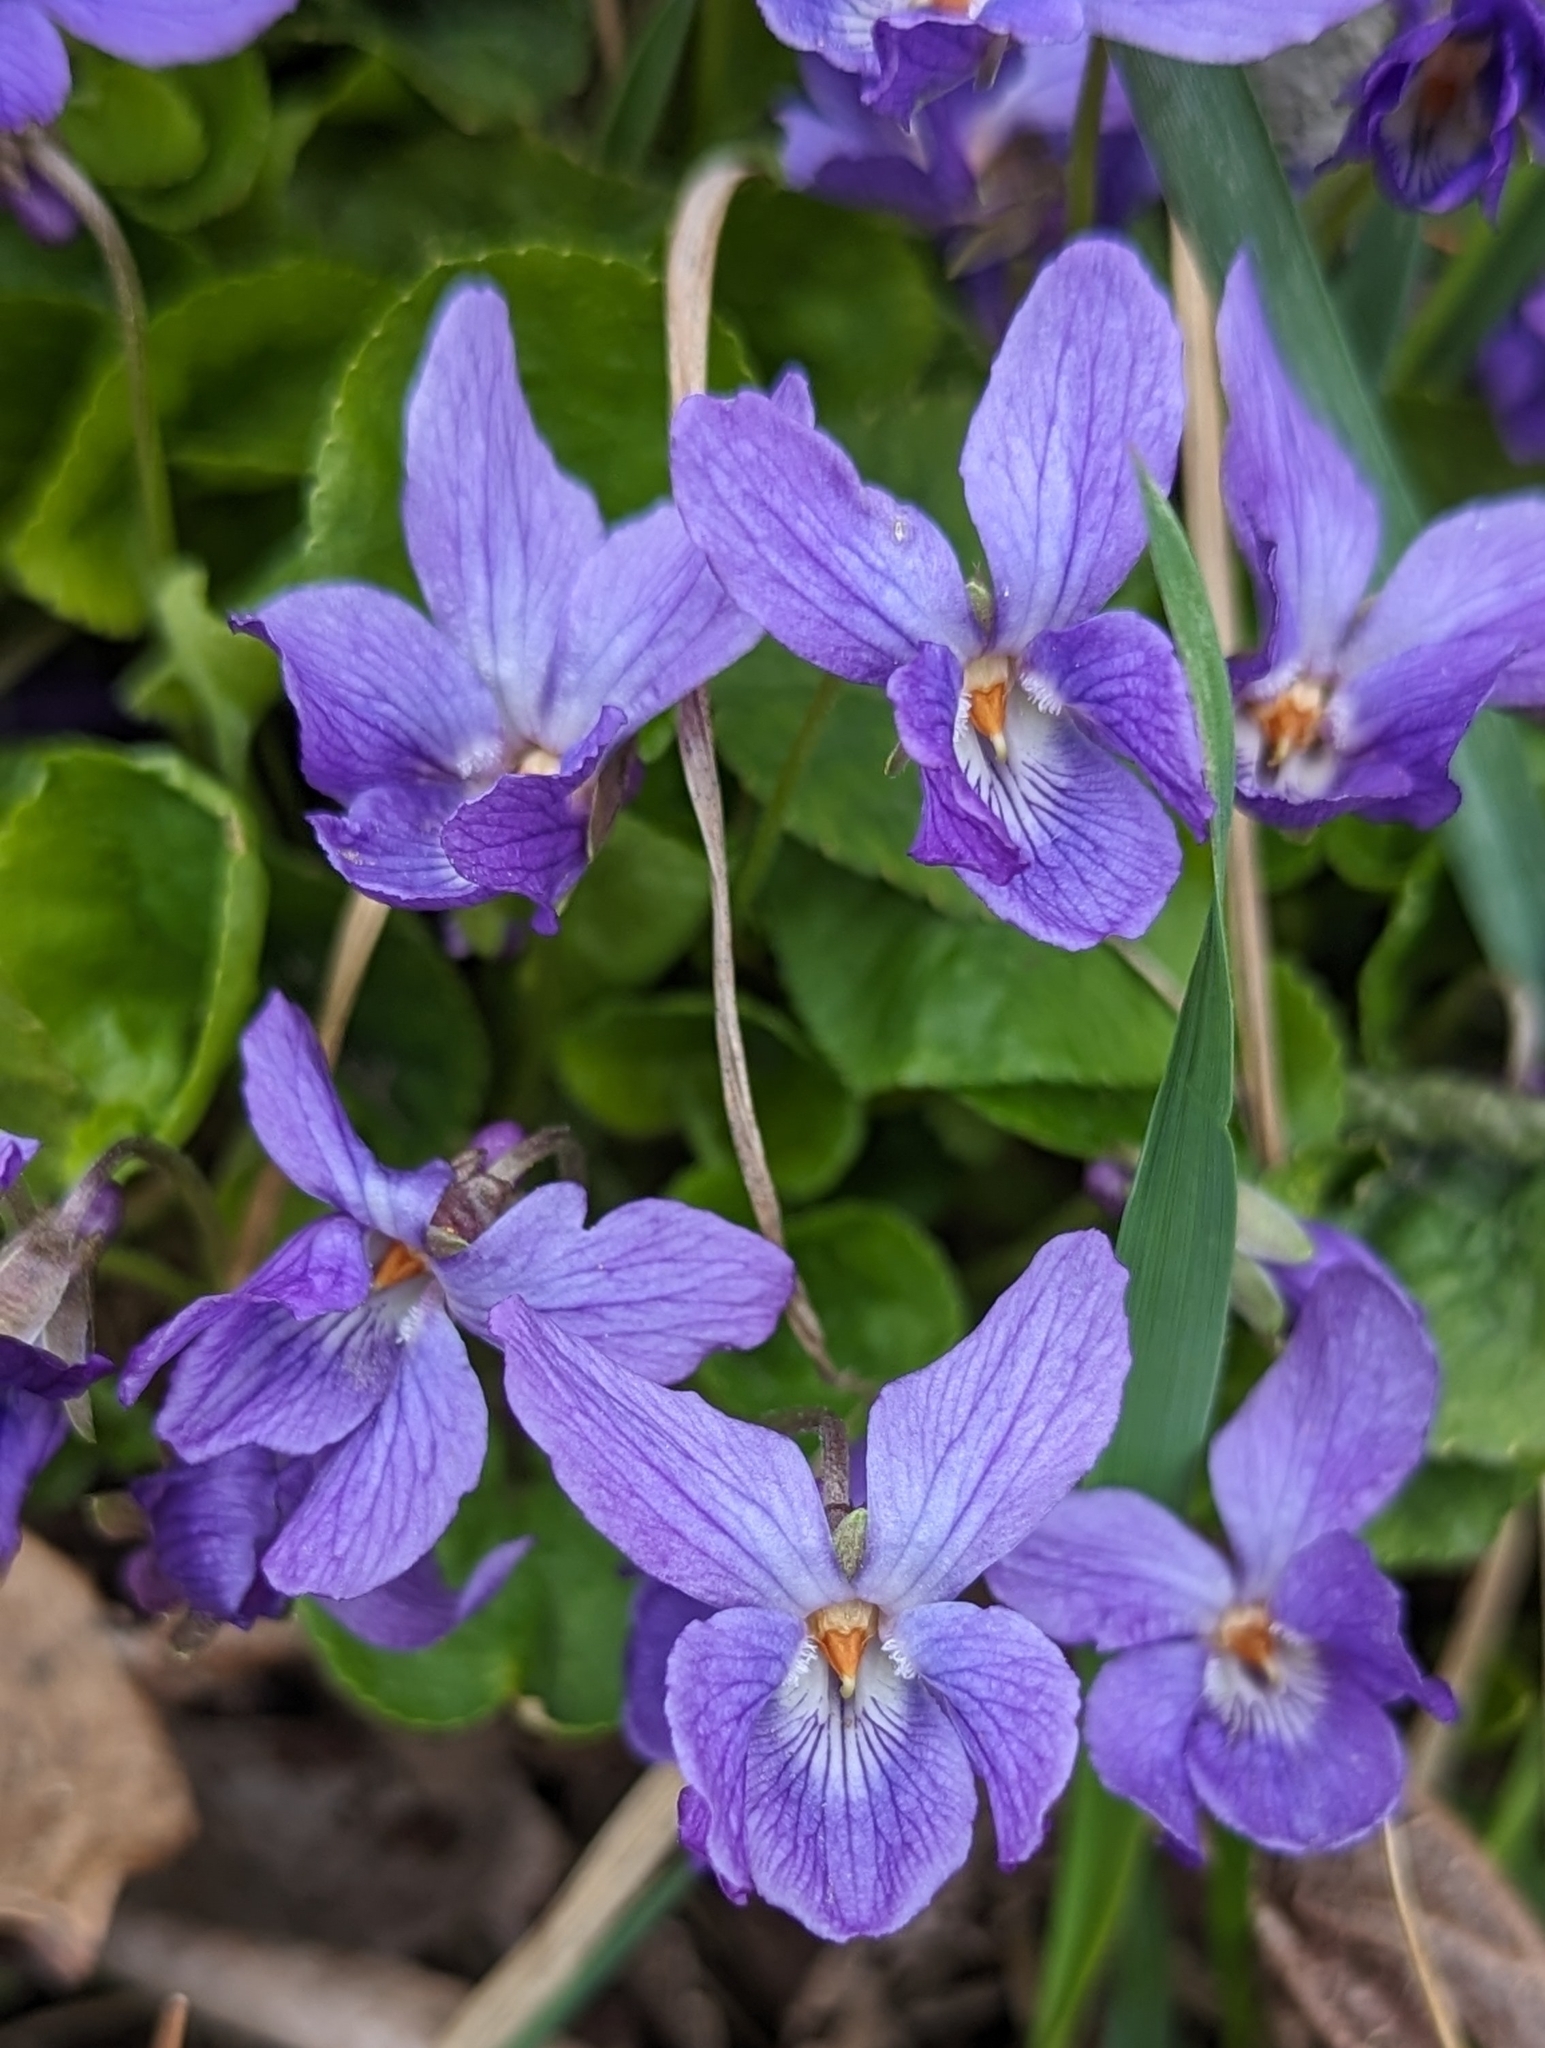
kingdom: Plantae
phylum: Tracheophyta
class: Magnoliopsida
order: Malpighiales
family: Violaceae
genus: Viola
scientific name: Viola odorata
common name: Sweet violet
